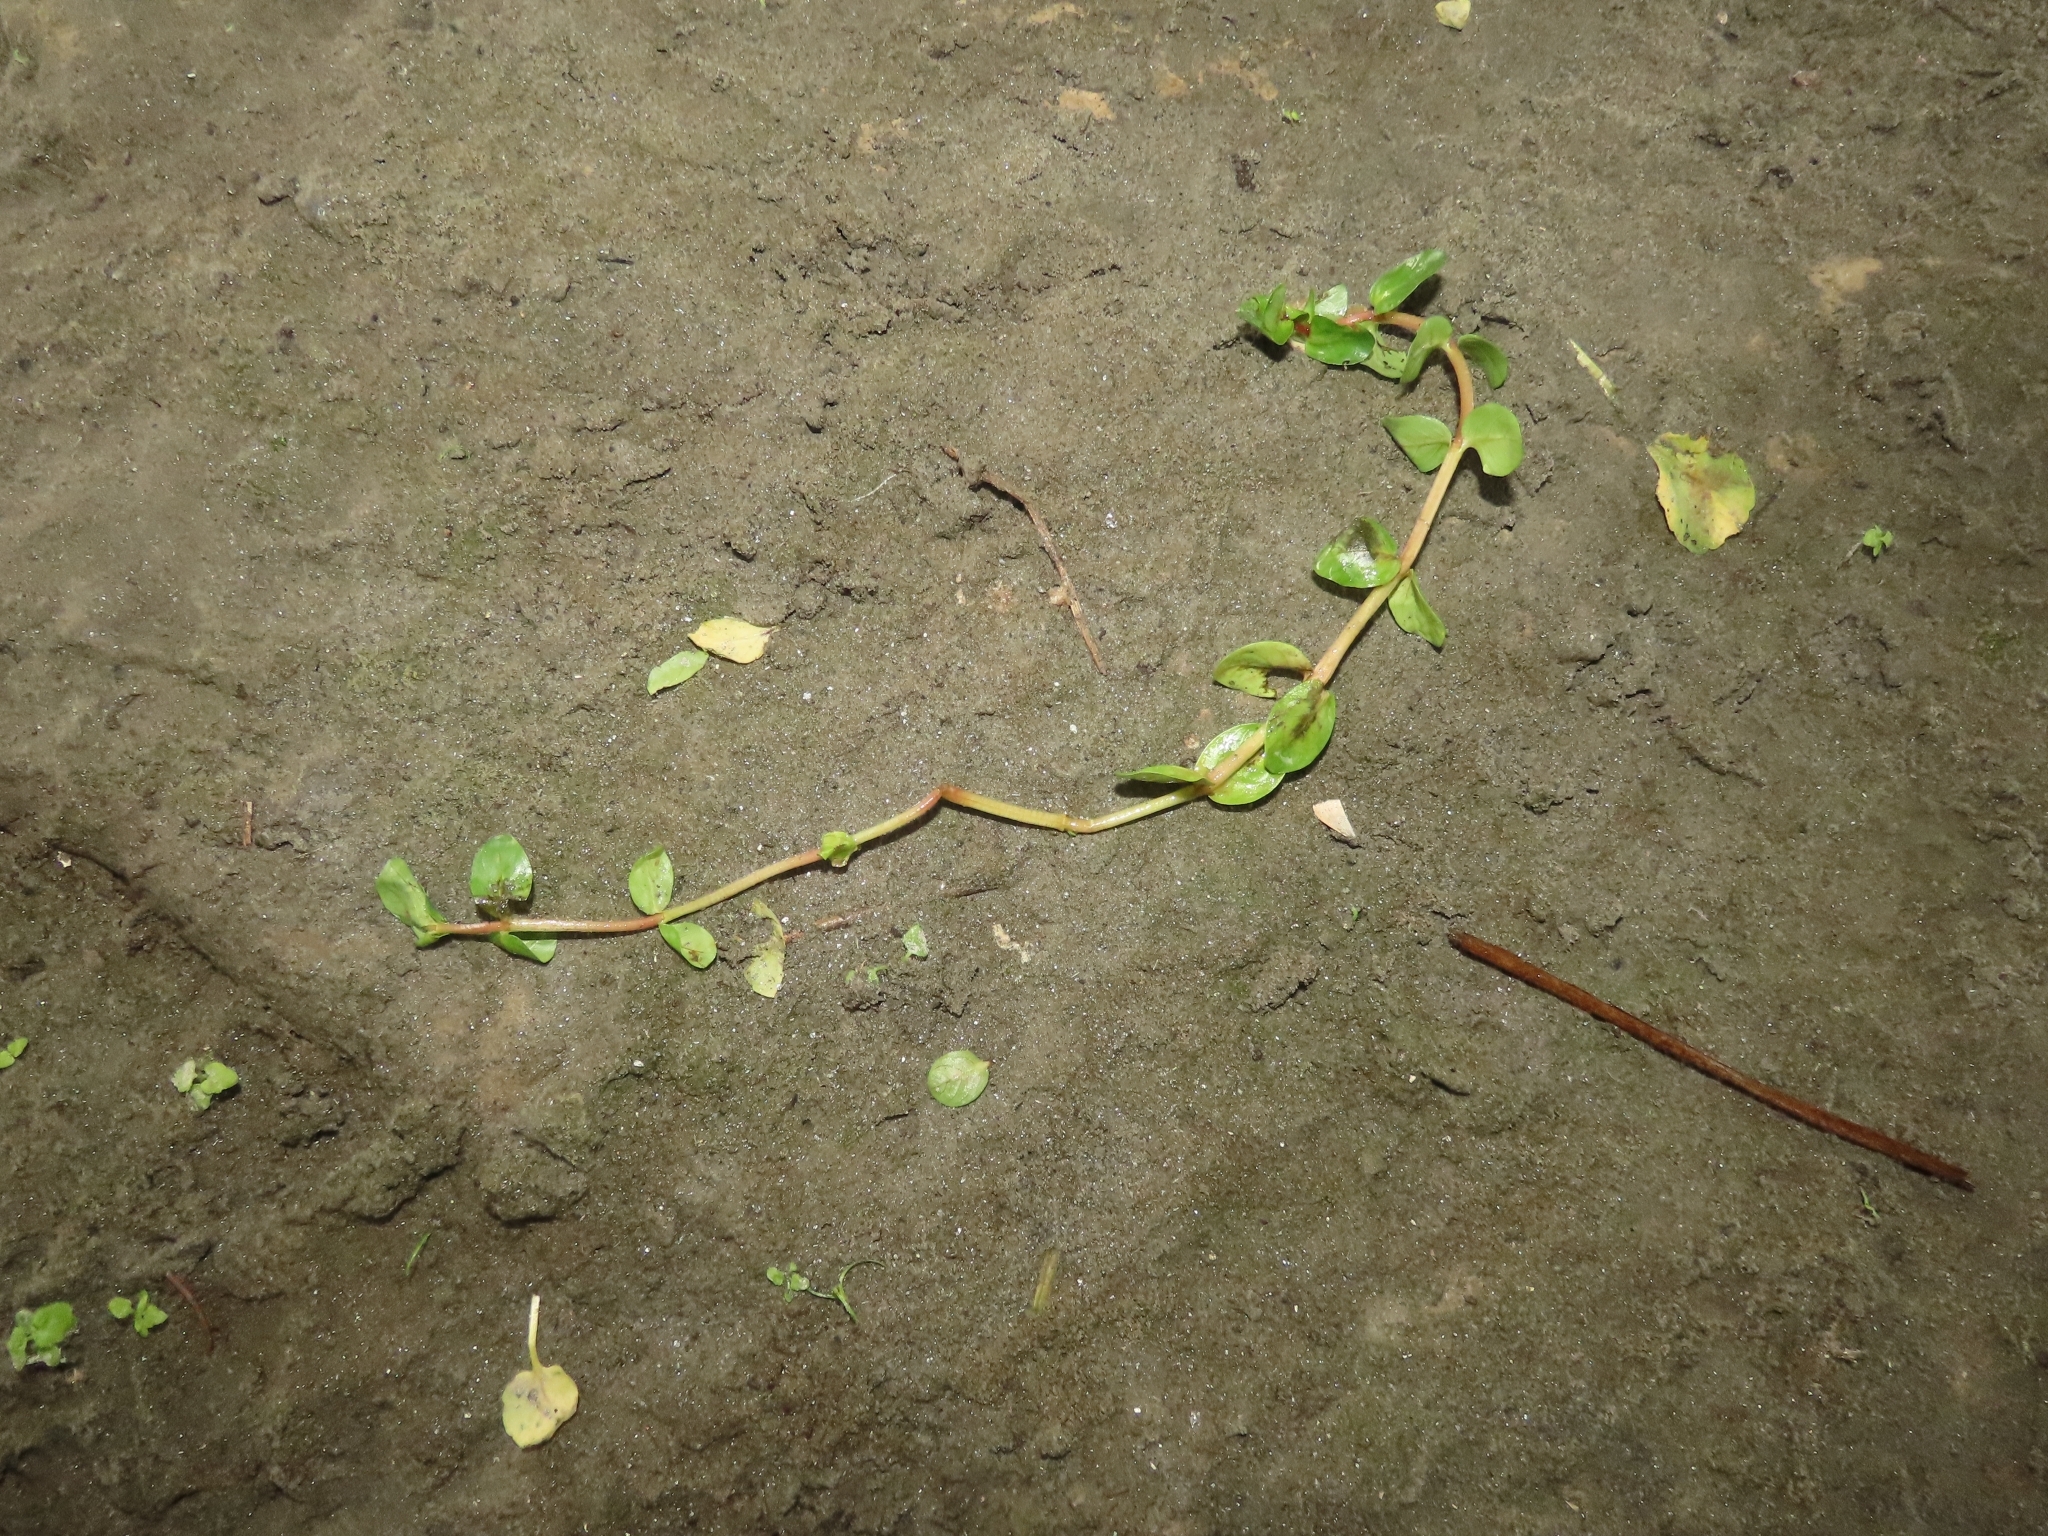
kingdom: Plantae
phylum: Tracheophyta
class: Magnoliopsida
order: Myrtales
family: Lythraceae
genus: Rotala
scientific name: Rotala rotundifolia
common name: Roundleaf toothcup
